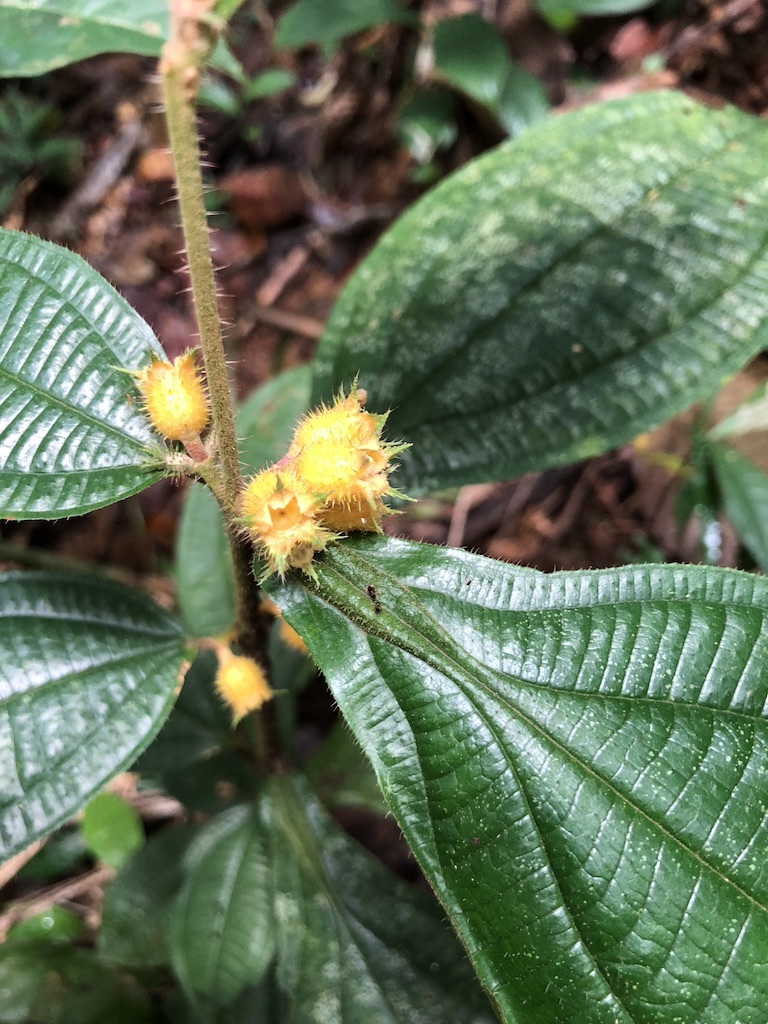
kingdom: Plantae
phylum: Tracheophyta
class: Magnoliopsida
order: Myrtales
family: Melastomataceae
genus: Miconia
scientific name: Miconia alternidomatia
